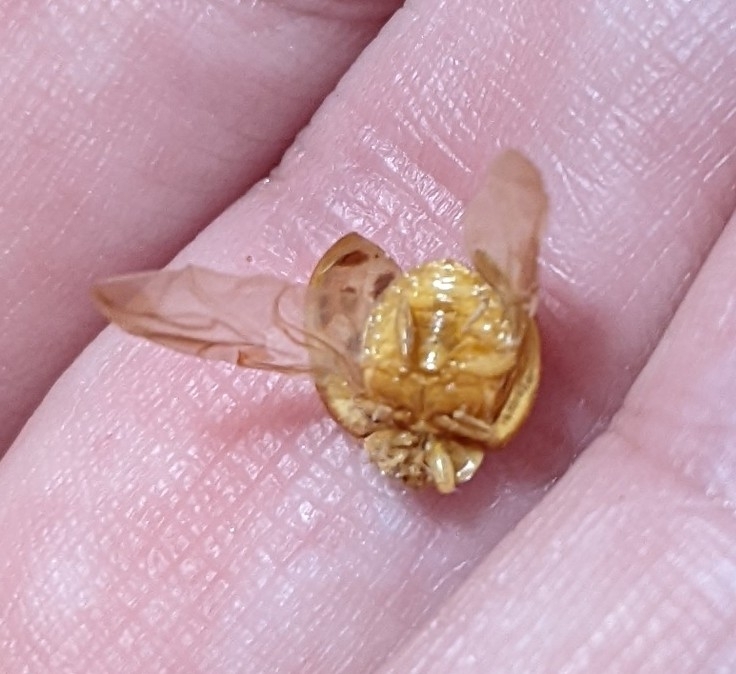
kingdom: Animalia
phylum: Arthropoda
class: Insecta
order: Coleoptera
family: Coccinellidae
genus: Harmonia
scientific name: Harmonia axyridis
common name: Harlequin ladybird
